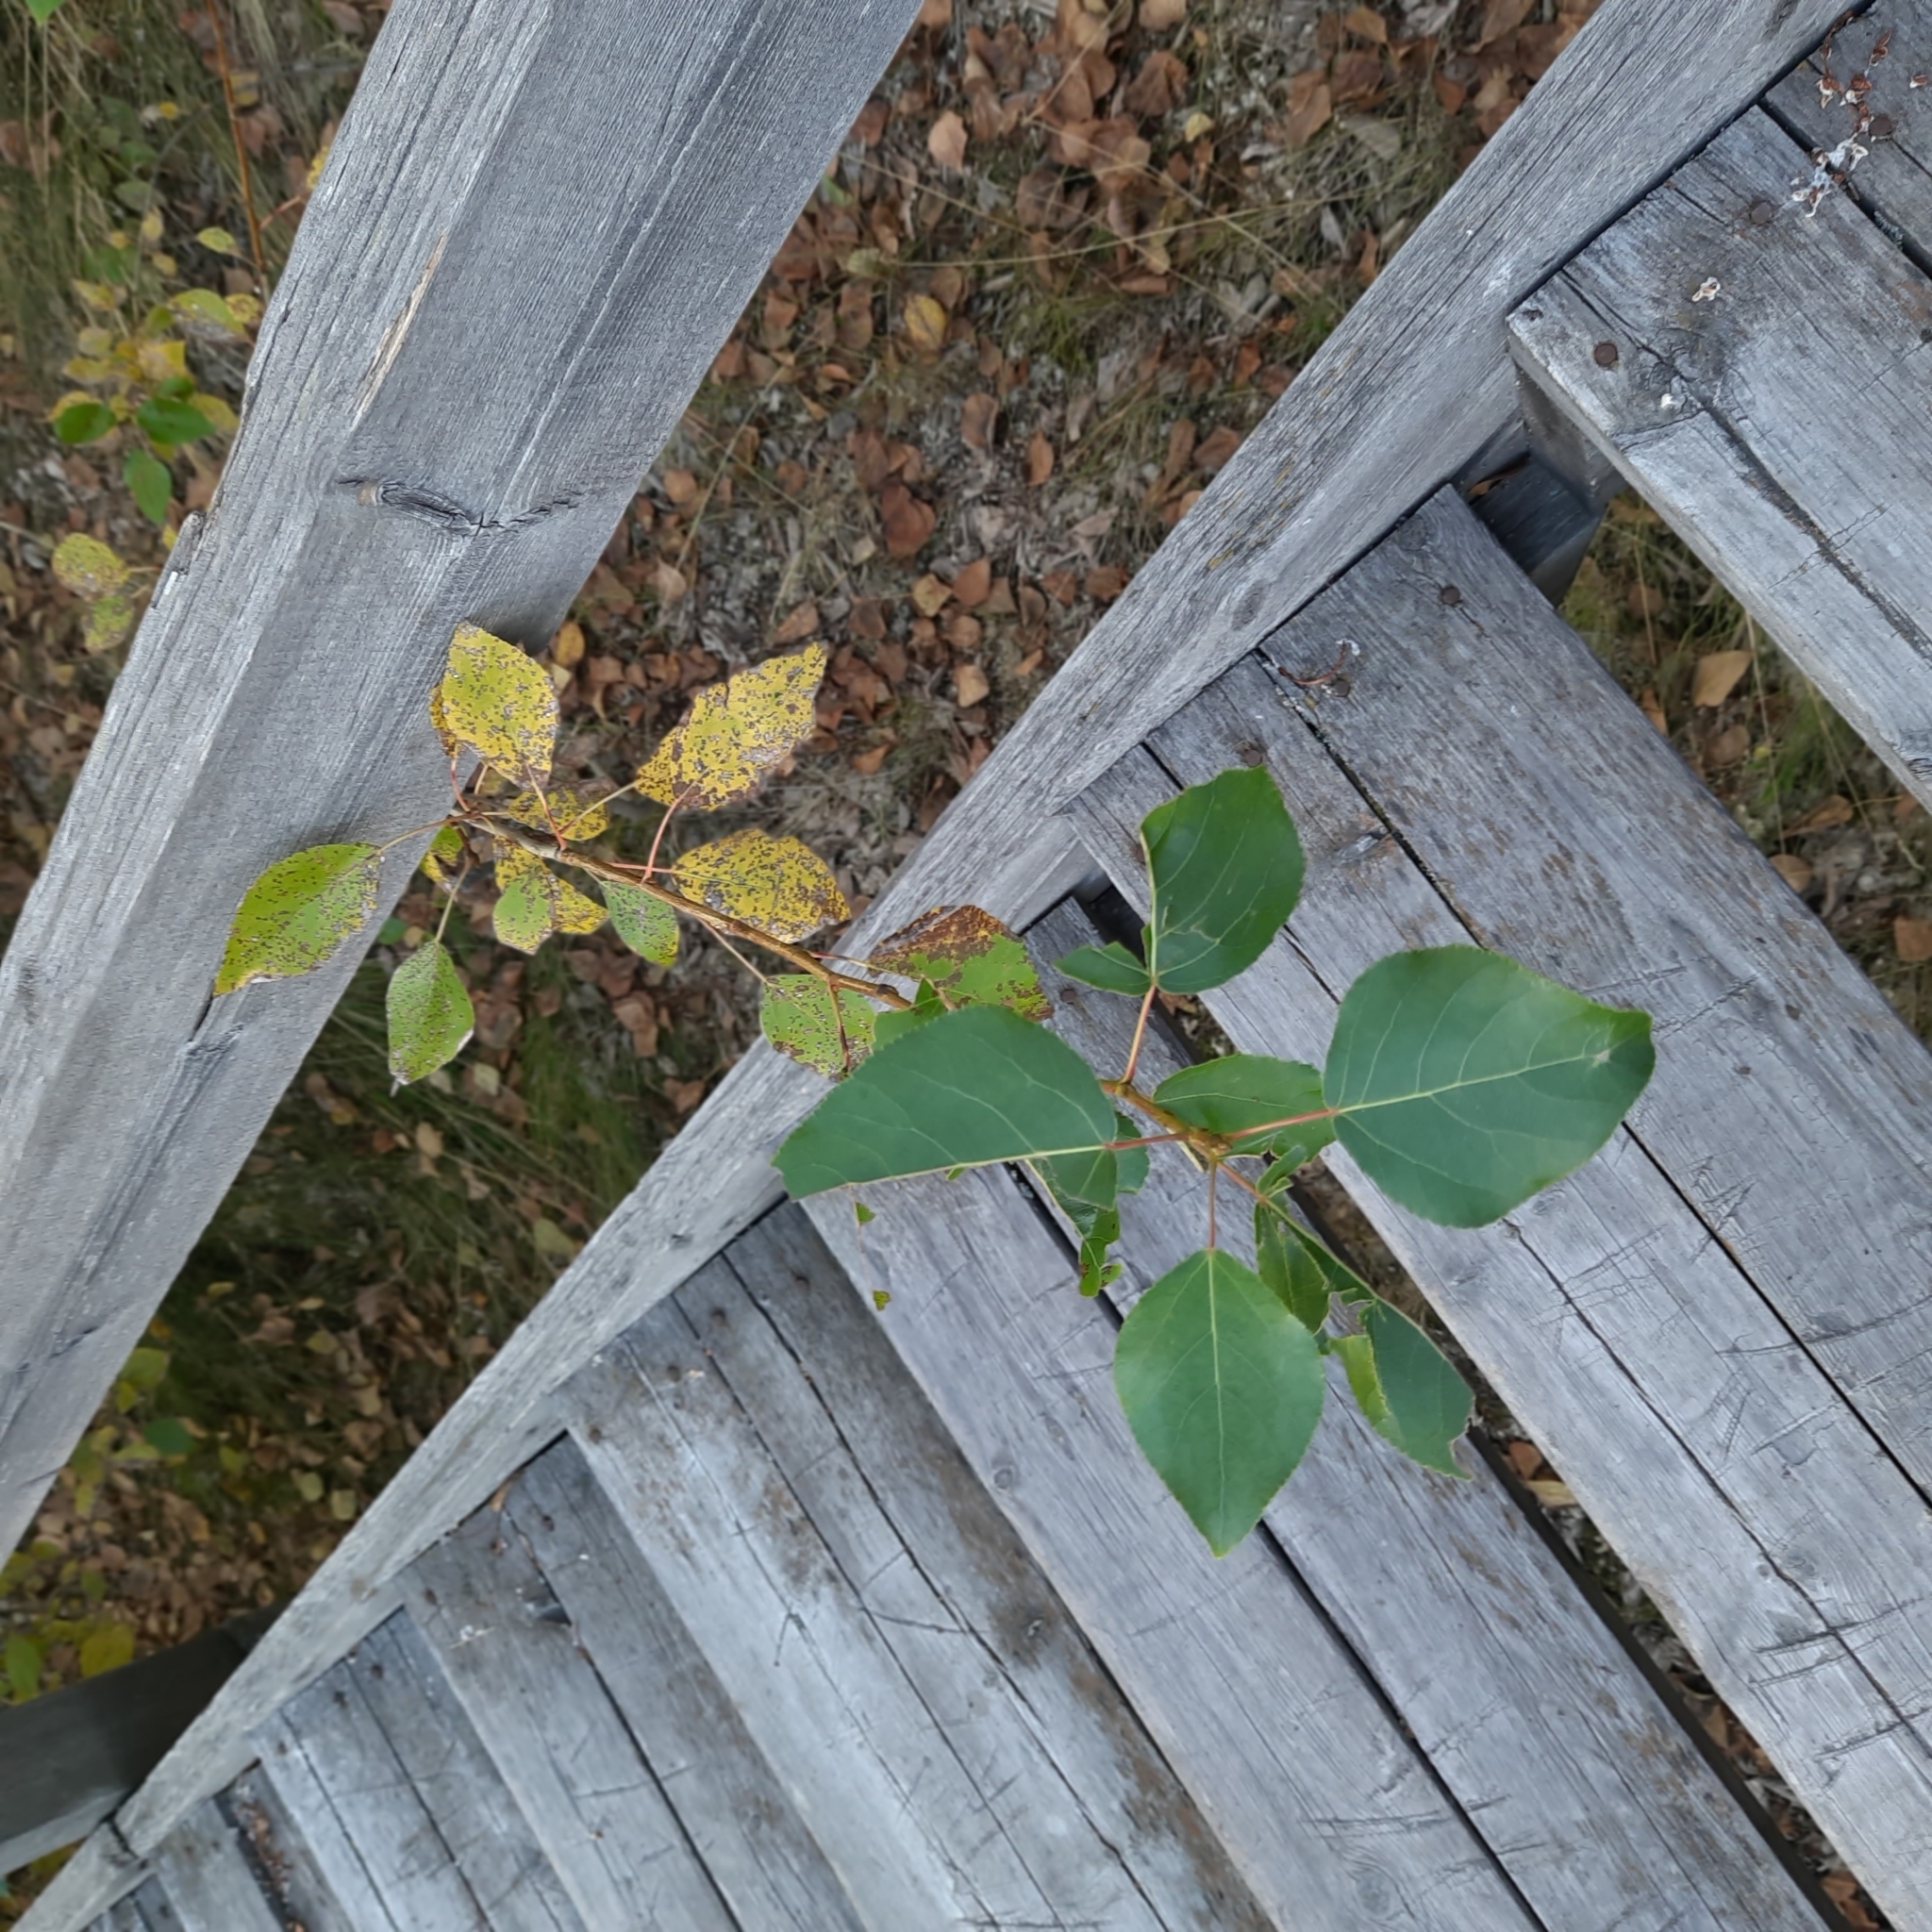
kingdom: Plantae
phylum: Tracheophyta
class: Magnoliopsida
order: Malpighiales
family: Salicaceae
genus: Populus
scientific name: Populus sibirica
